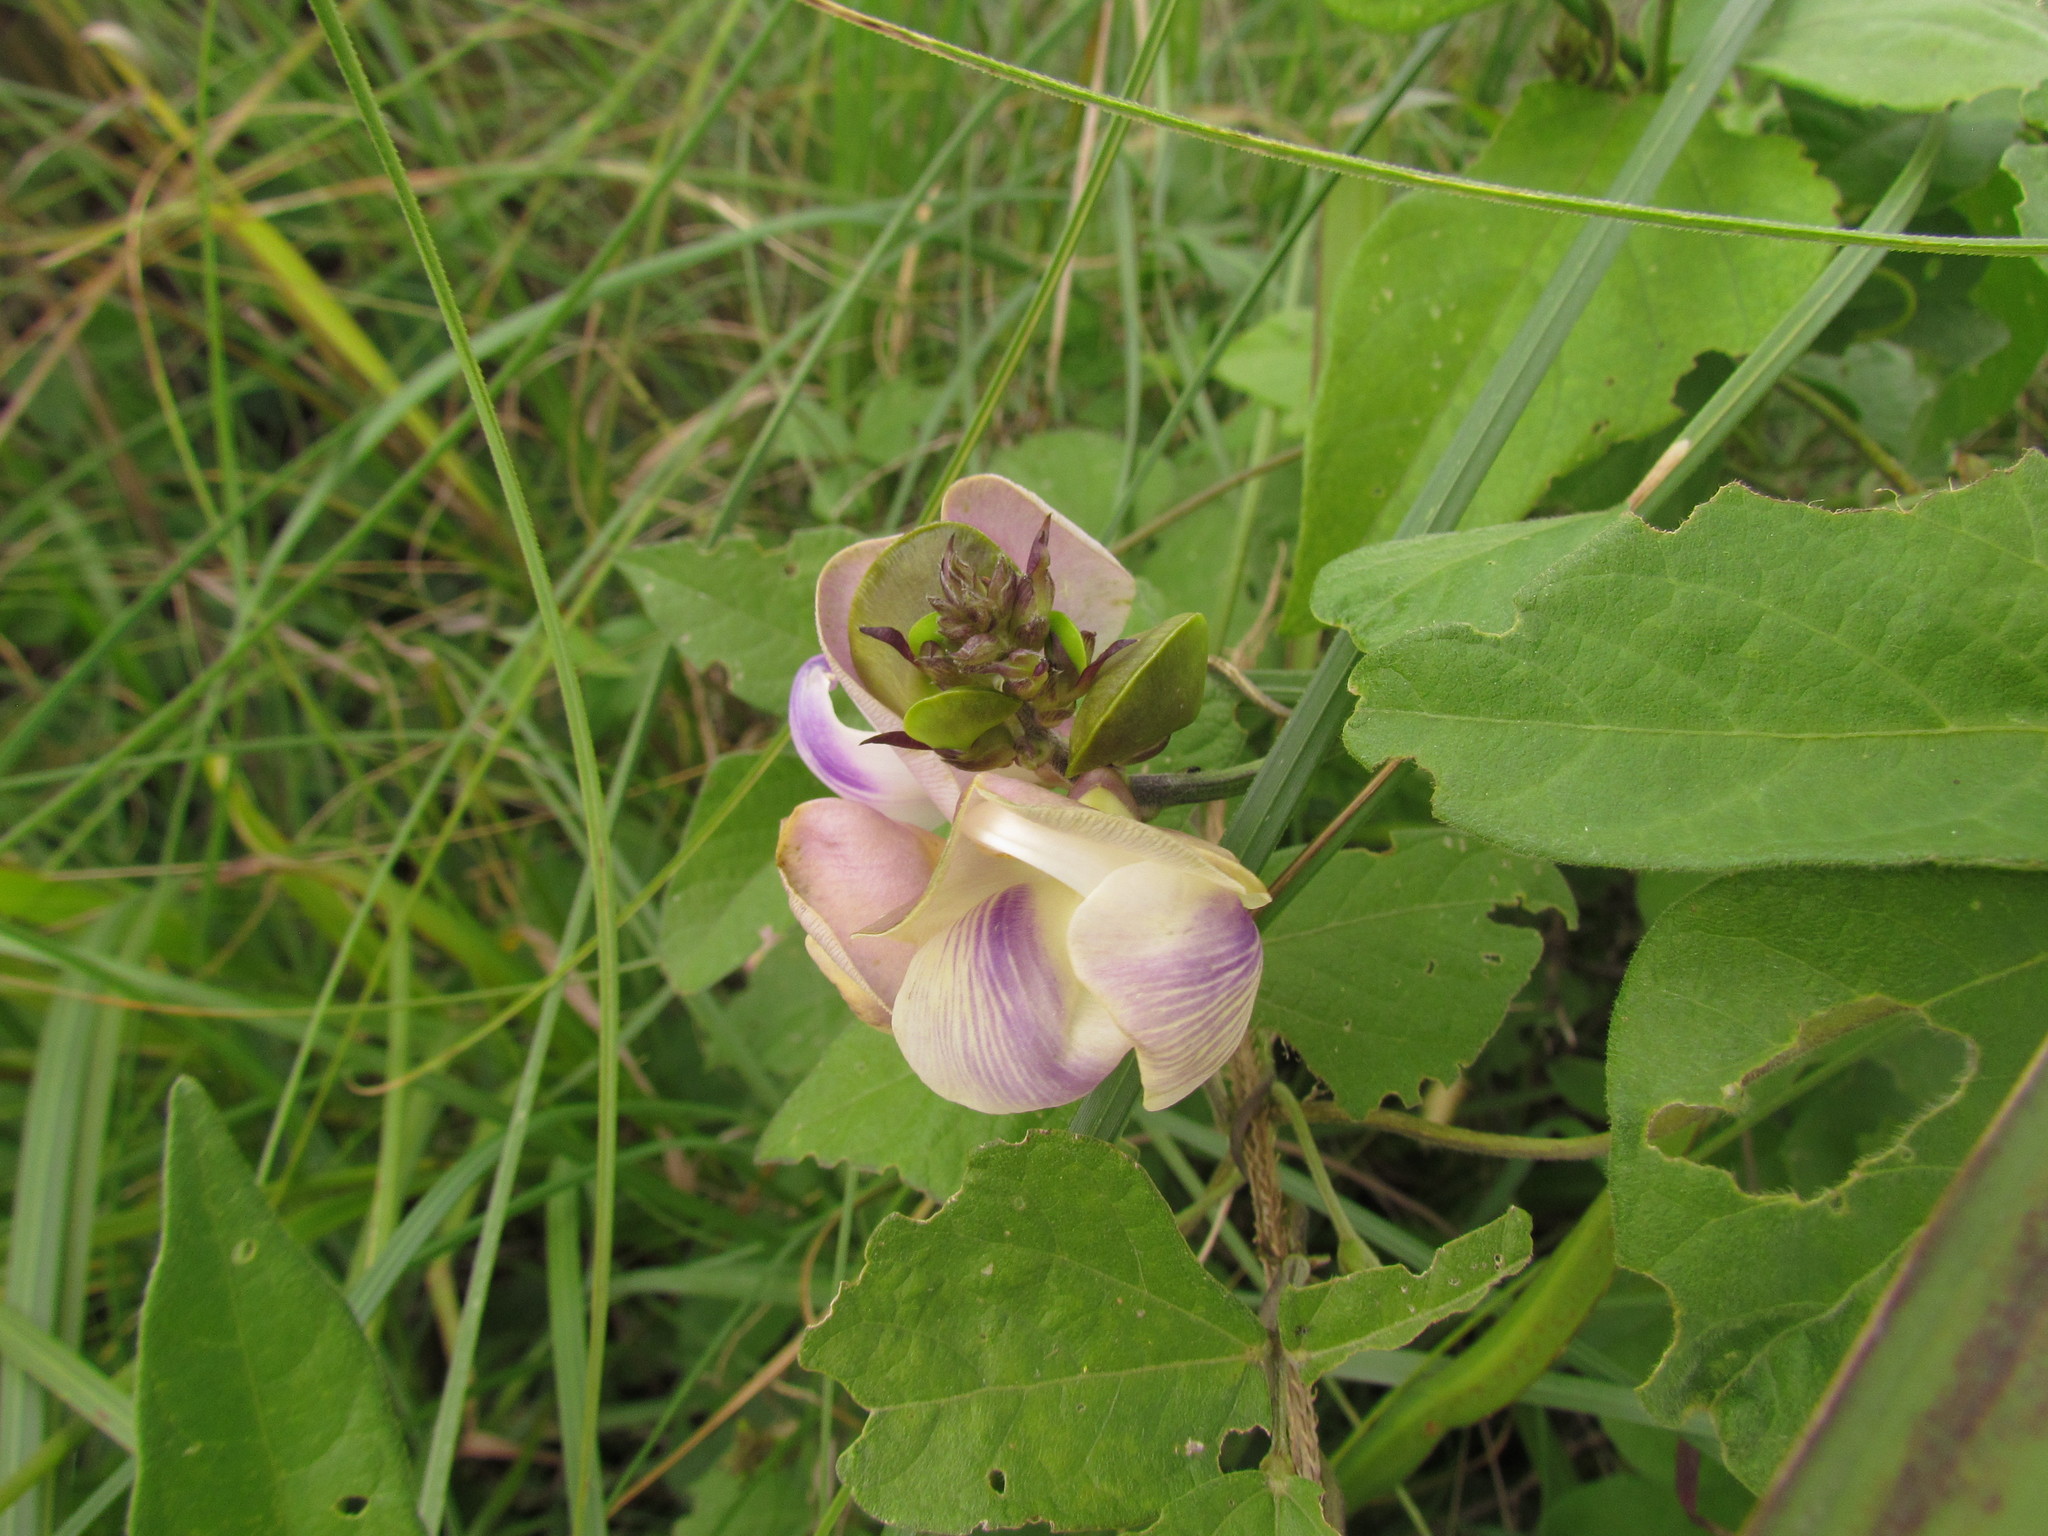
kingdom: Plantae
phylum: Tracheophyta
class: Magnoliopsida
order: Fabales
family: Fabaceae
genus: Leptospron
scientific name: Leptospron adenanthum
